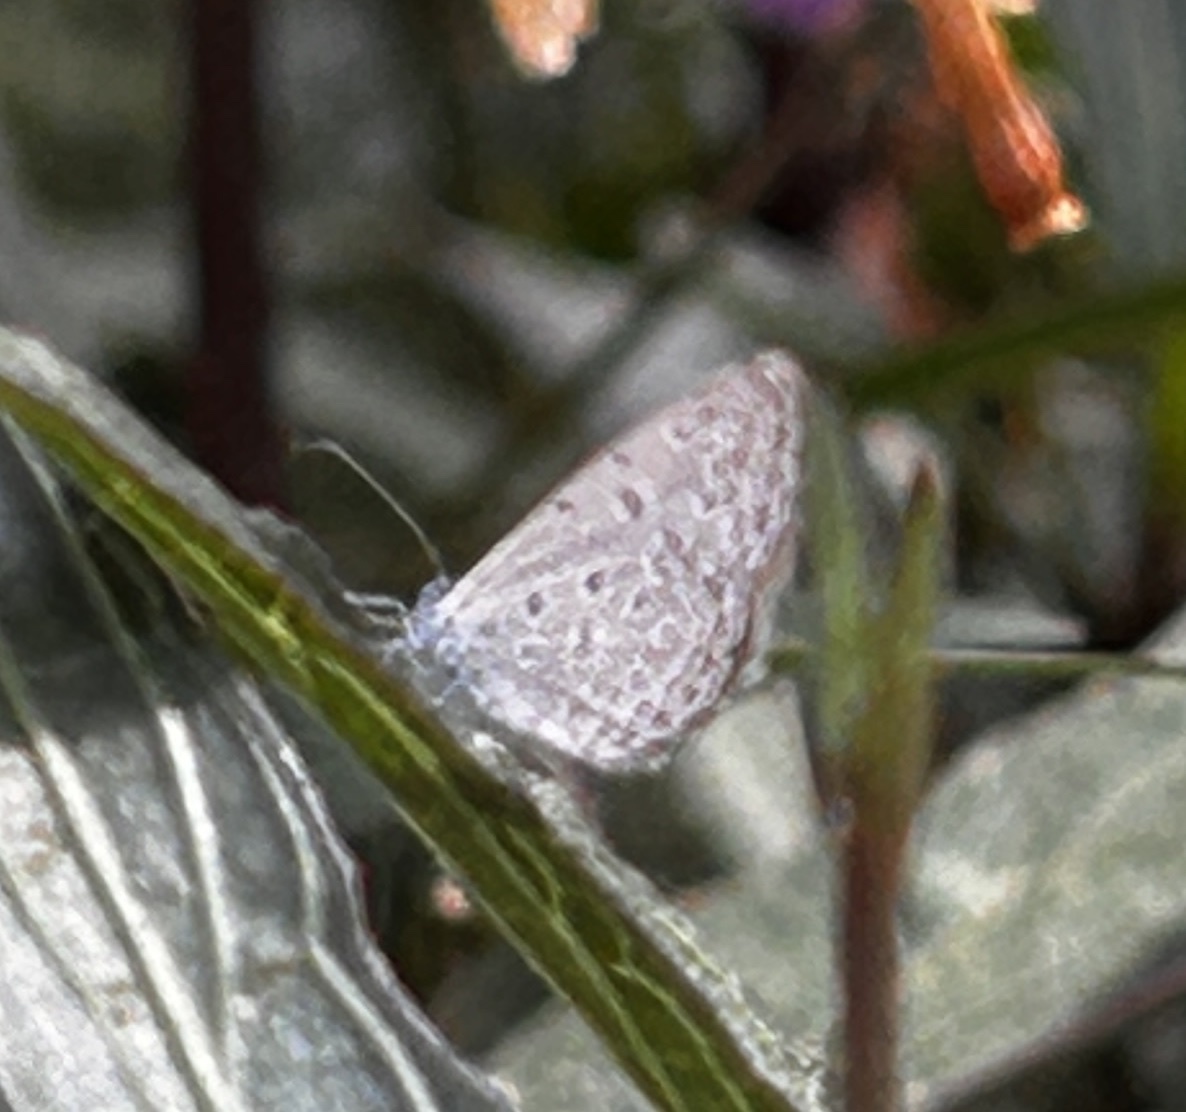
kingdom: Animalia
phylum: Arthropoda
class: Insecta
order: Lepidoptera
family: Lycaenidae
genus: Zizula
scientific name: Zizula hylax
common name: Gaika blue
